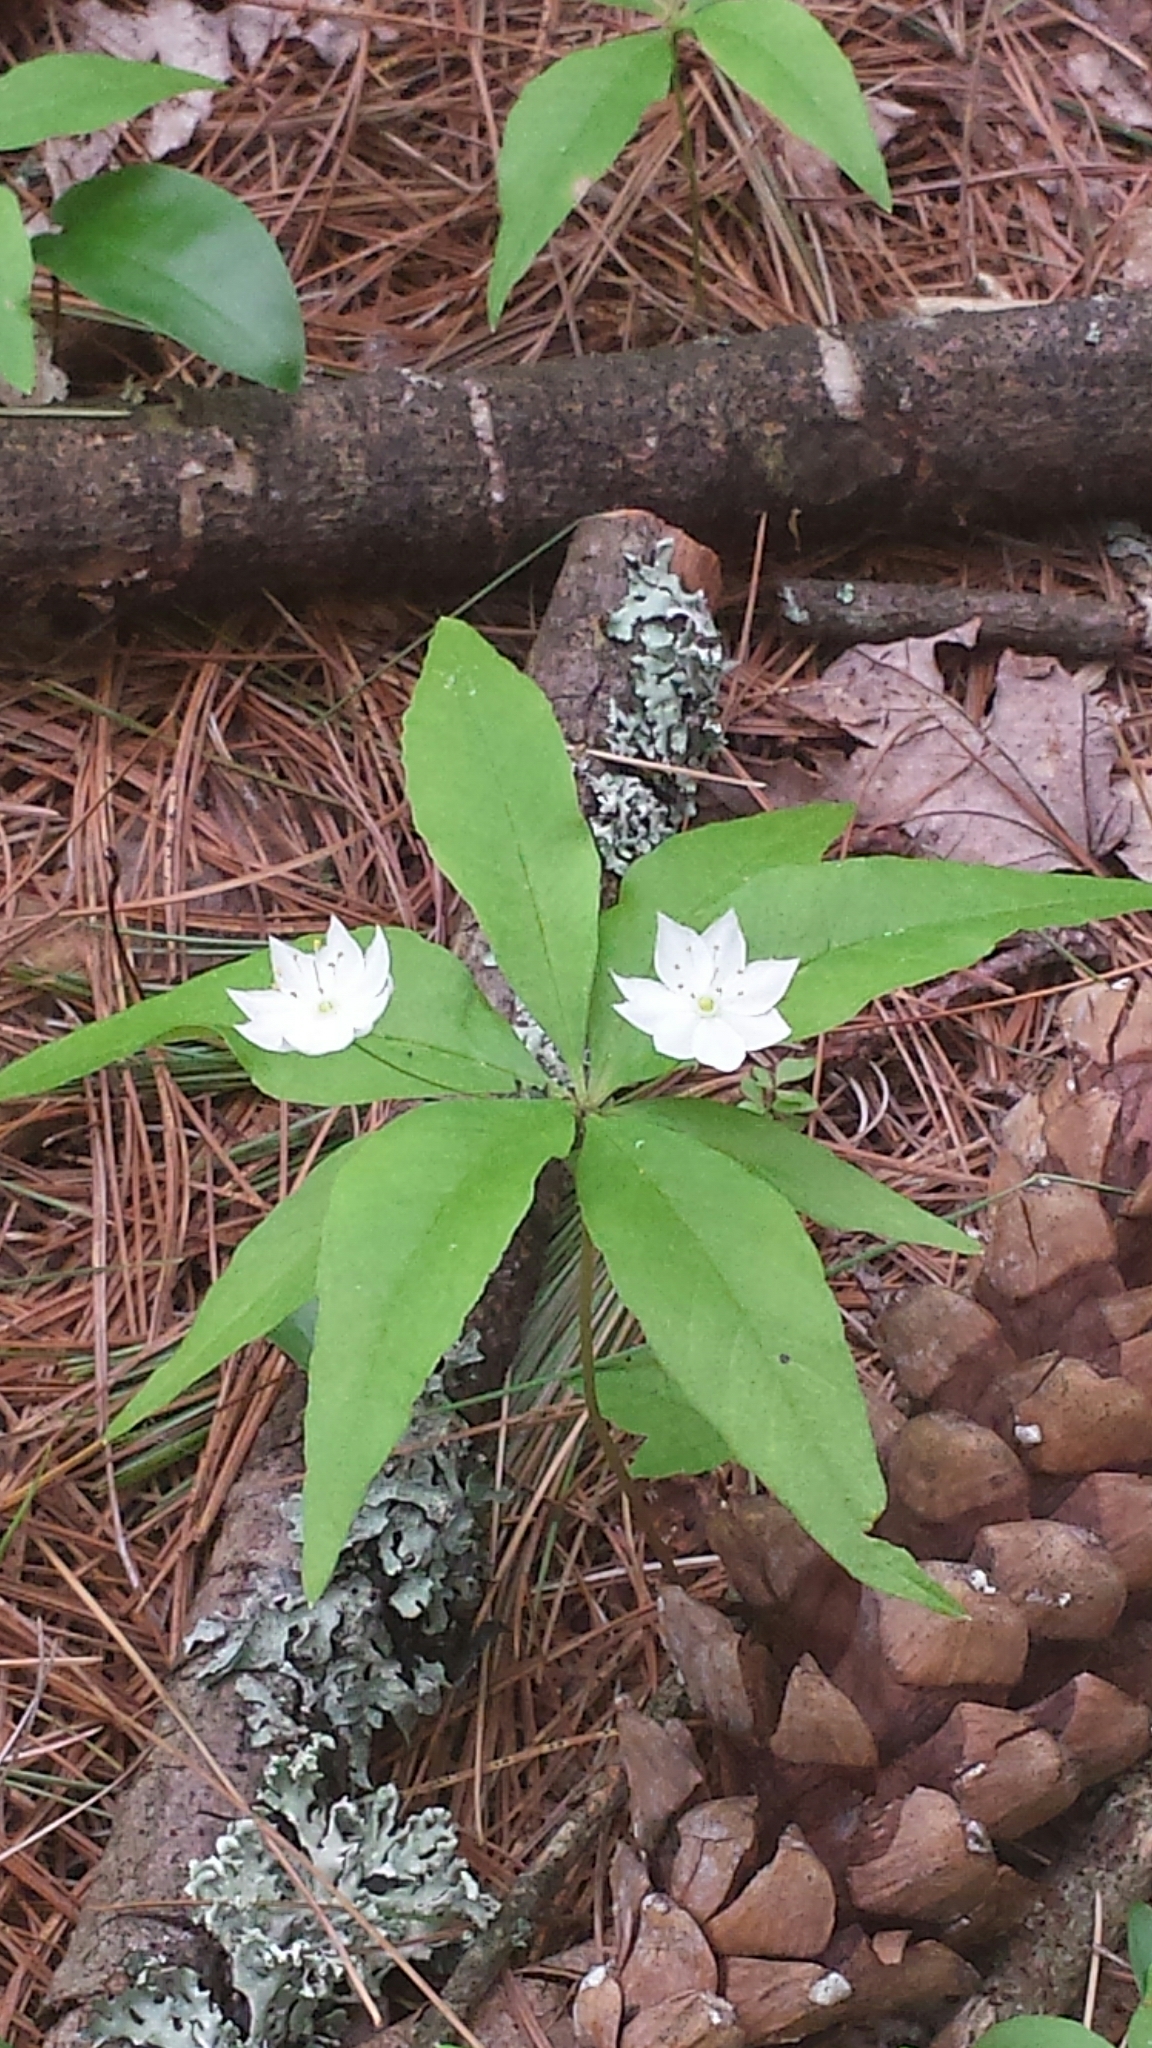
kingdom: Plantae
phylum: Tracheophyta
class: Magnoliopsida
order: Ericales
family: Primulaceae
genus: Lysimachia
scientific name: Lysimachia borealis
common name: American starflower
